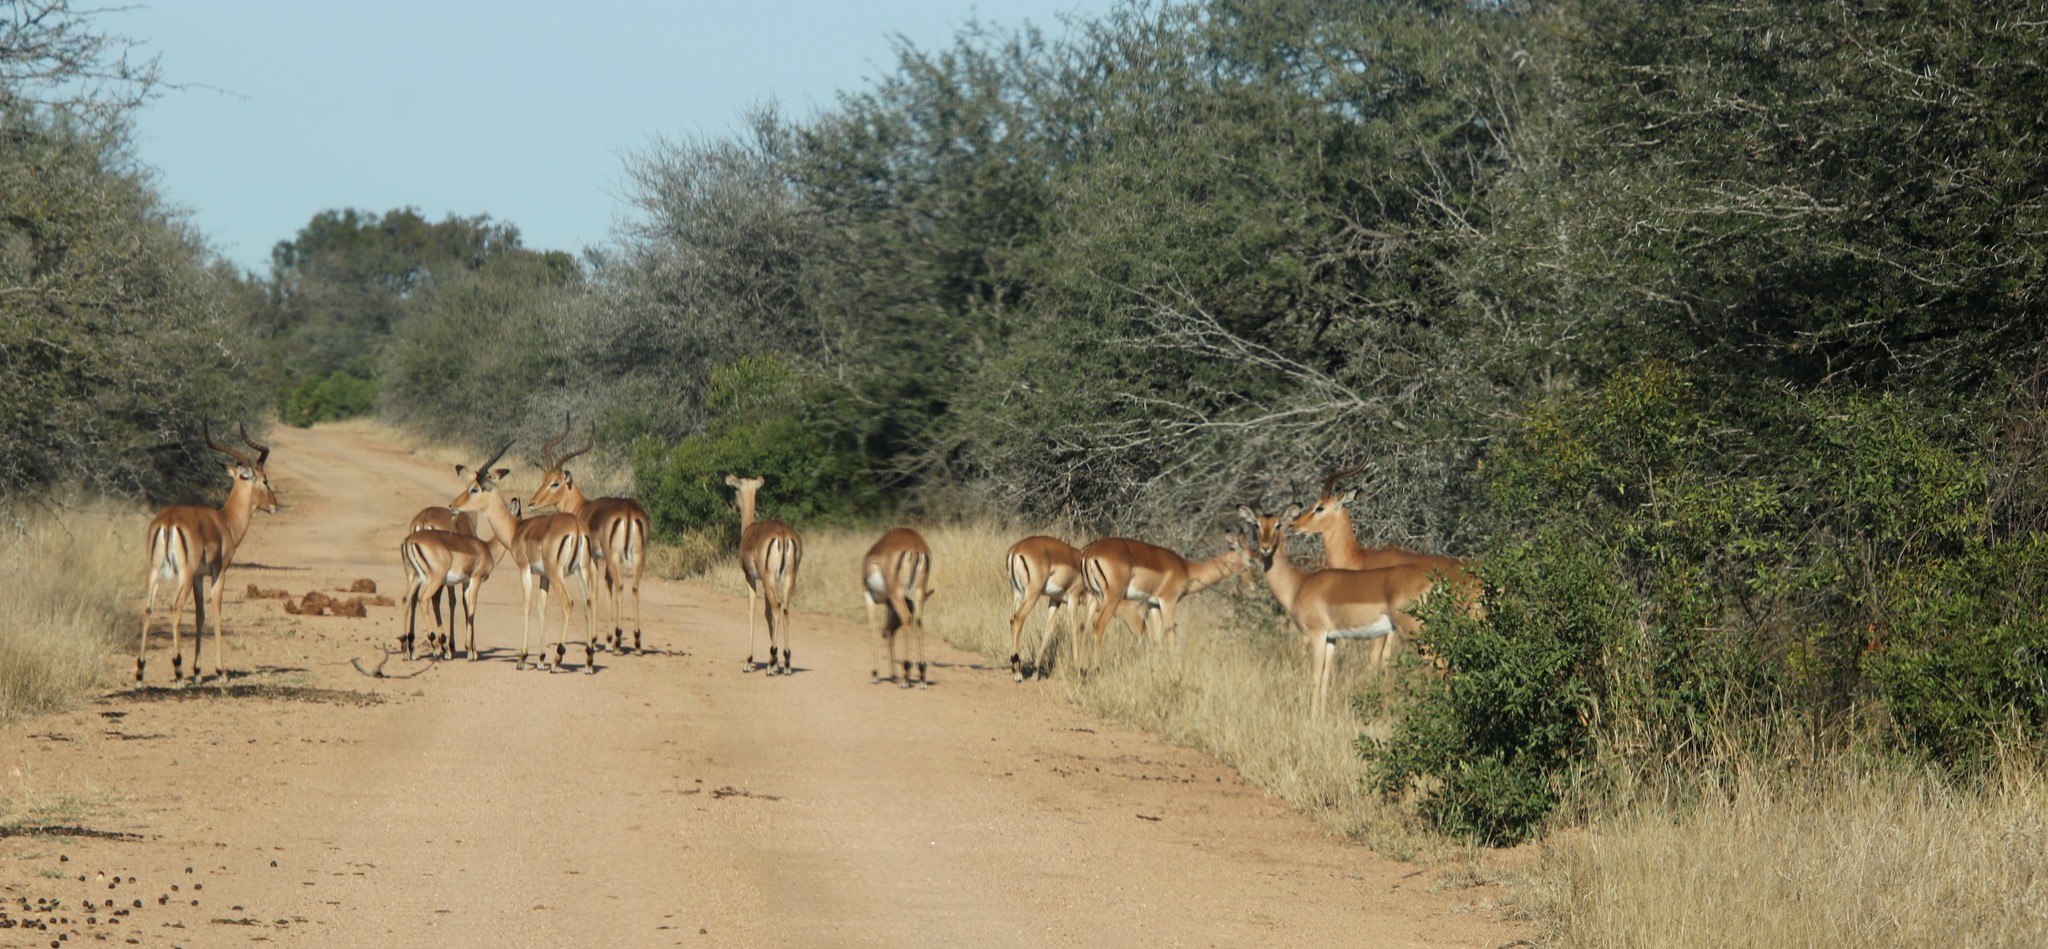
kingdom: Animalia
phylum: Chordata
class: Mammalia
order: Artiodactyla
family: Bovidae
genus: Aepyceros
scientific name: Aepyceros melampus
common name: Impala
